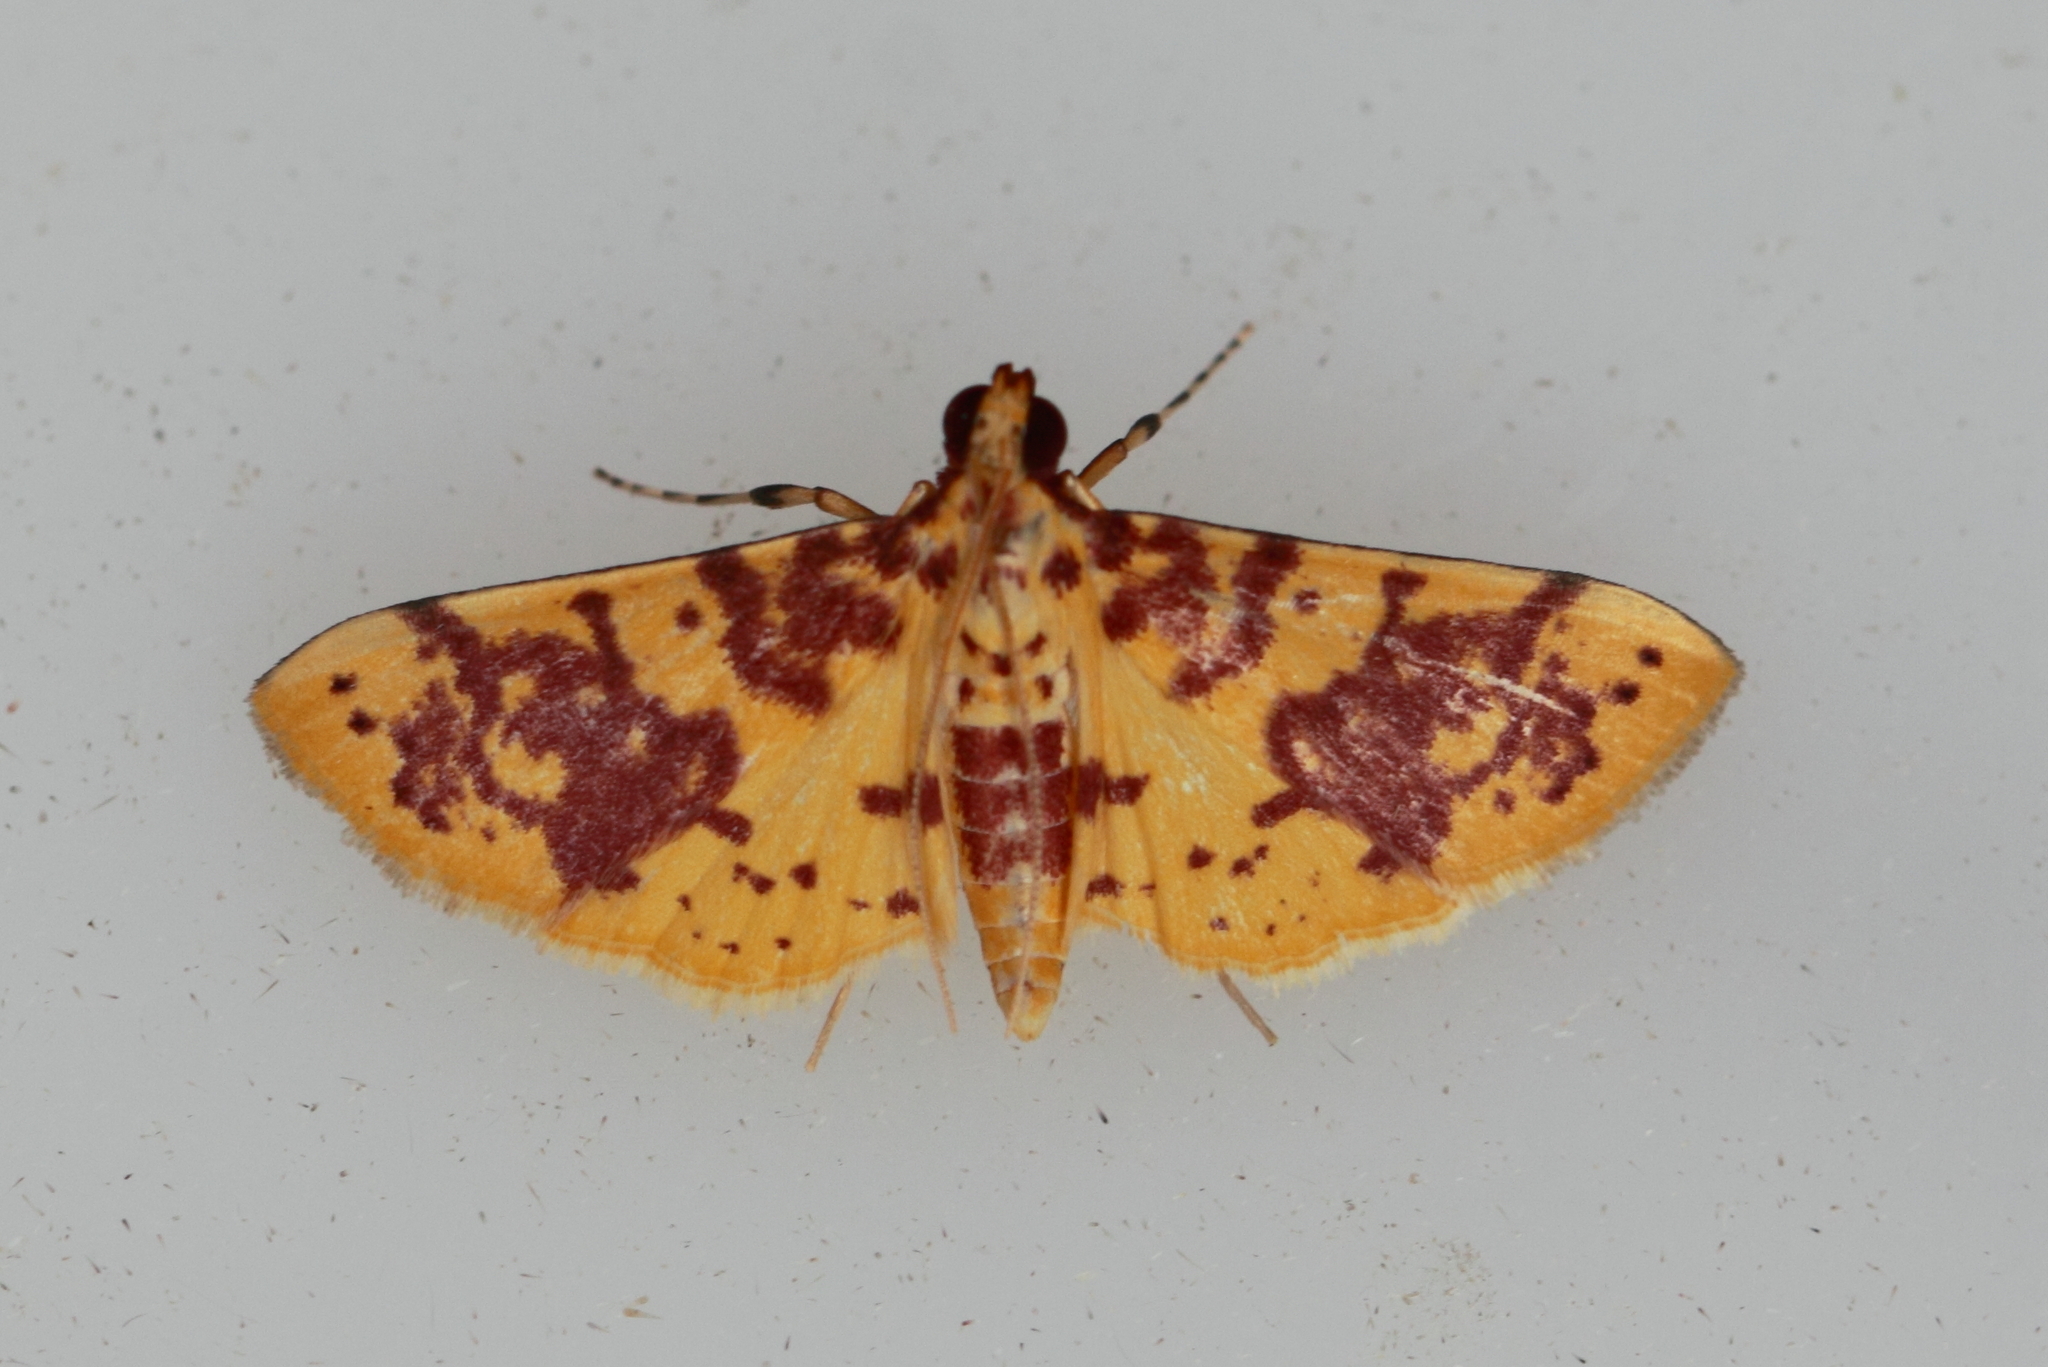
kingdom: Animalia
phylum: Arthropoda
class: Insecta
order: Lepidoptera
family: Crambidae
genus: Conogethes
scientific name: Conogethes haemactalis
